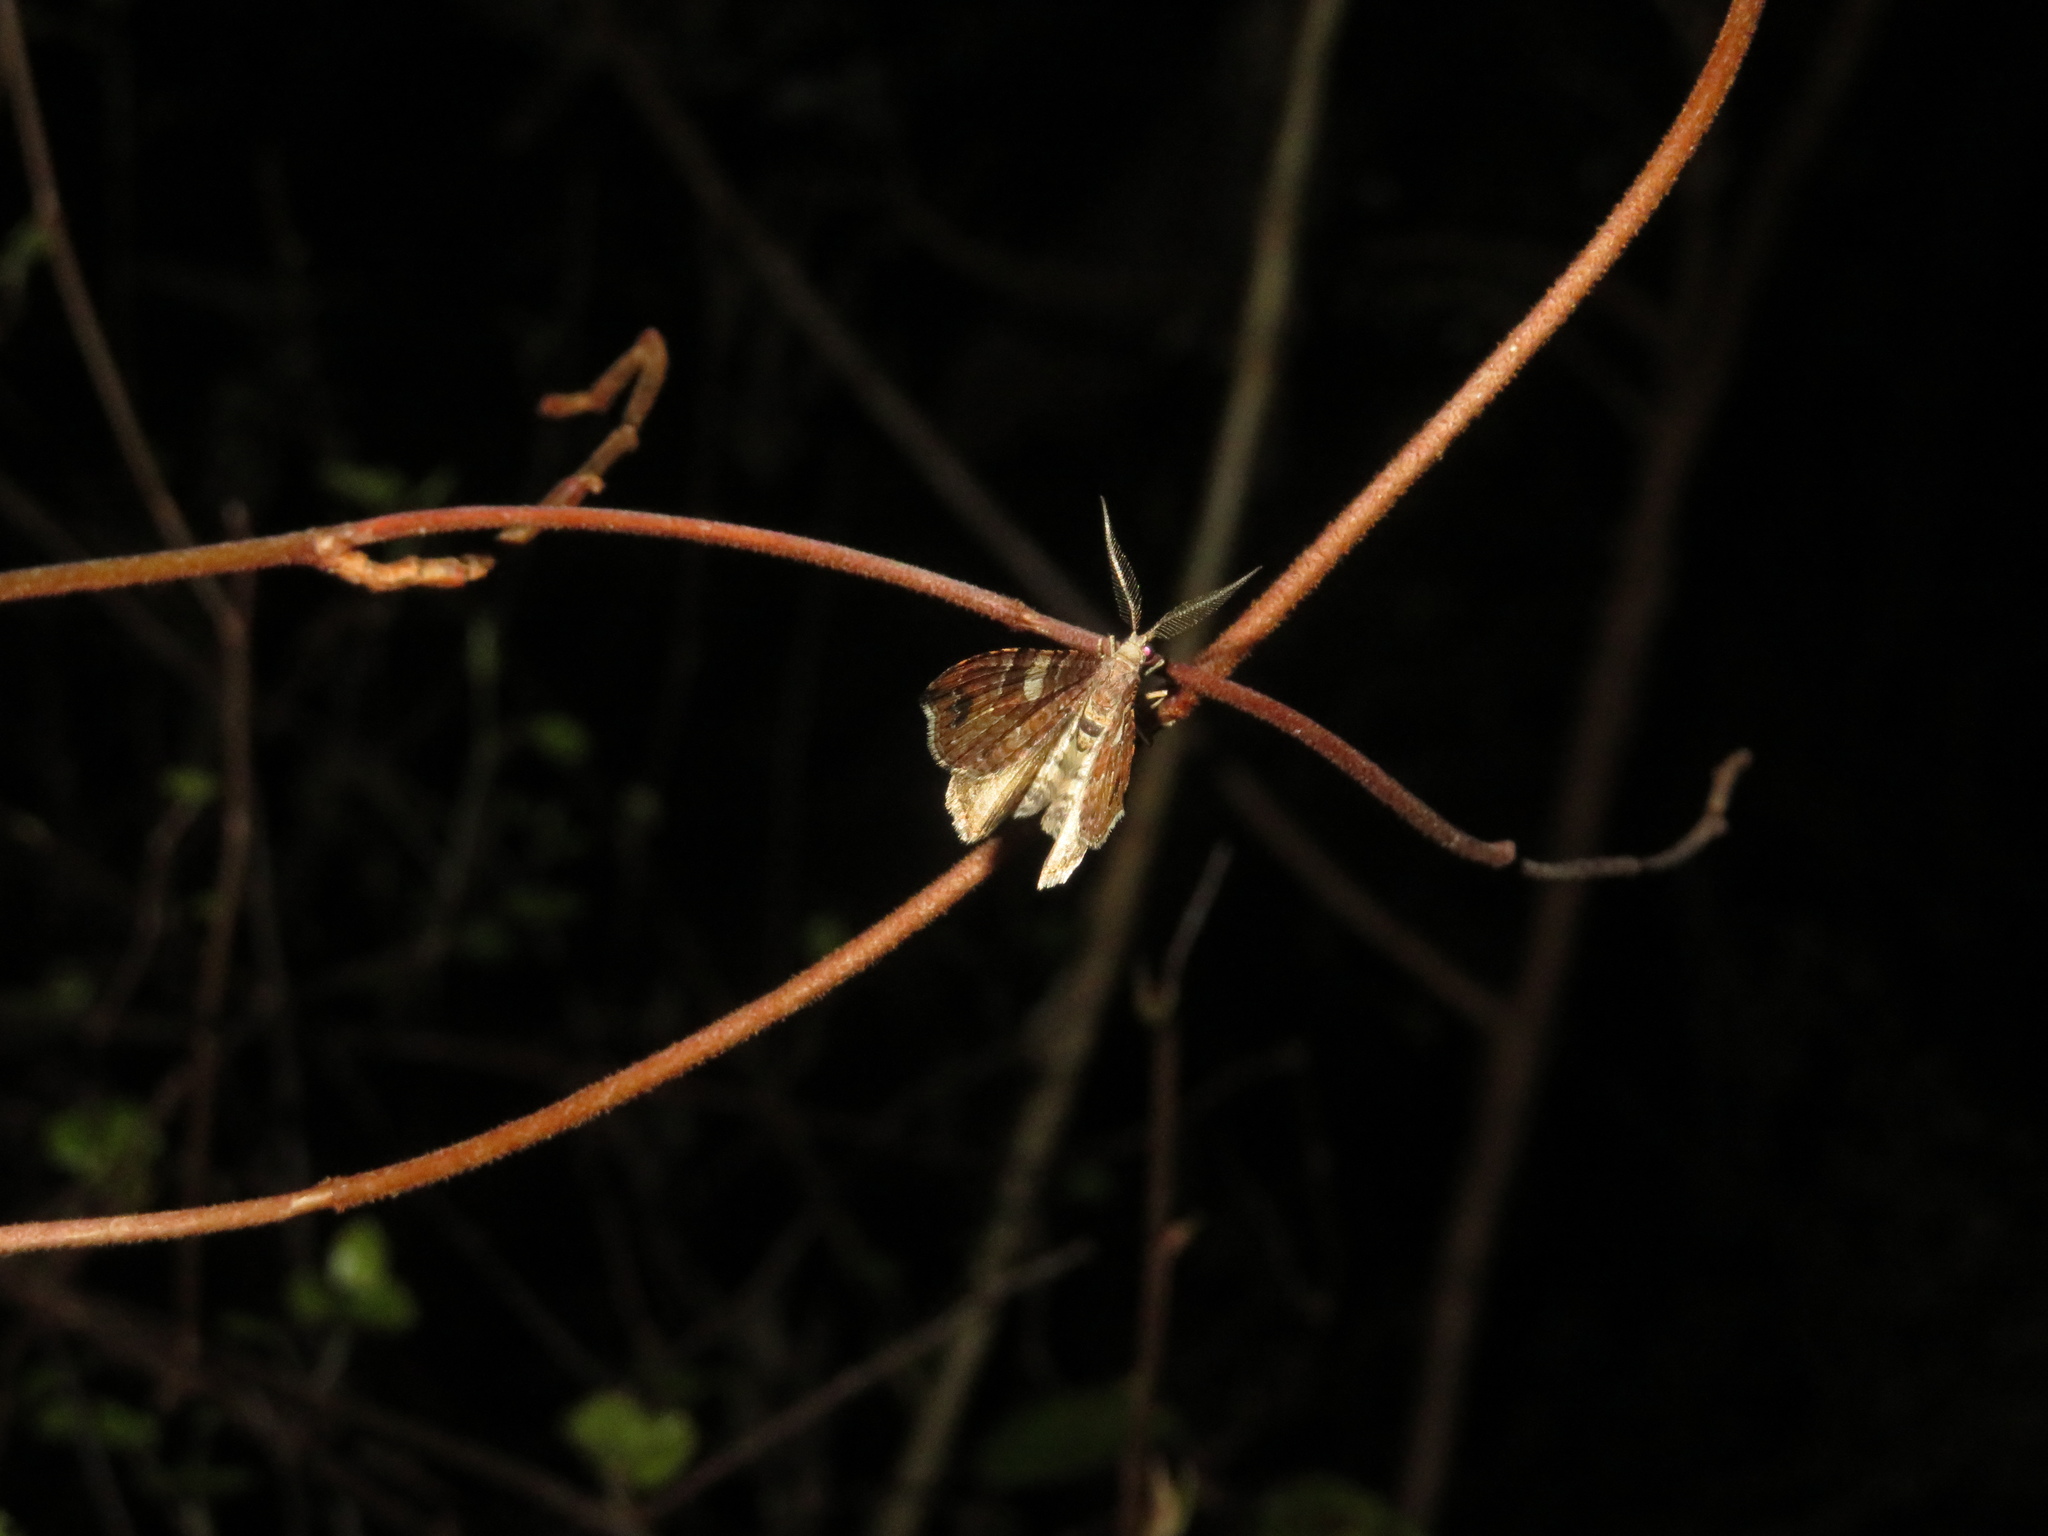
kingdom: Animalia
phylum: Arthropoda
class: Insecta
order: Lepidoptera
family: Geometridae
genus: Homodotis
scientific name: Homodotis megaspilata
